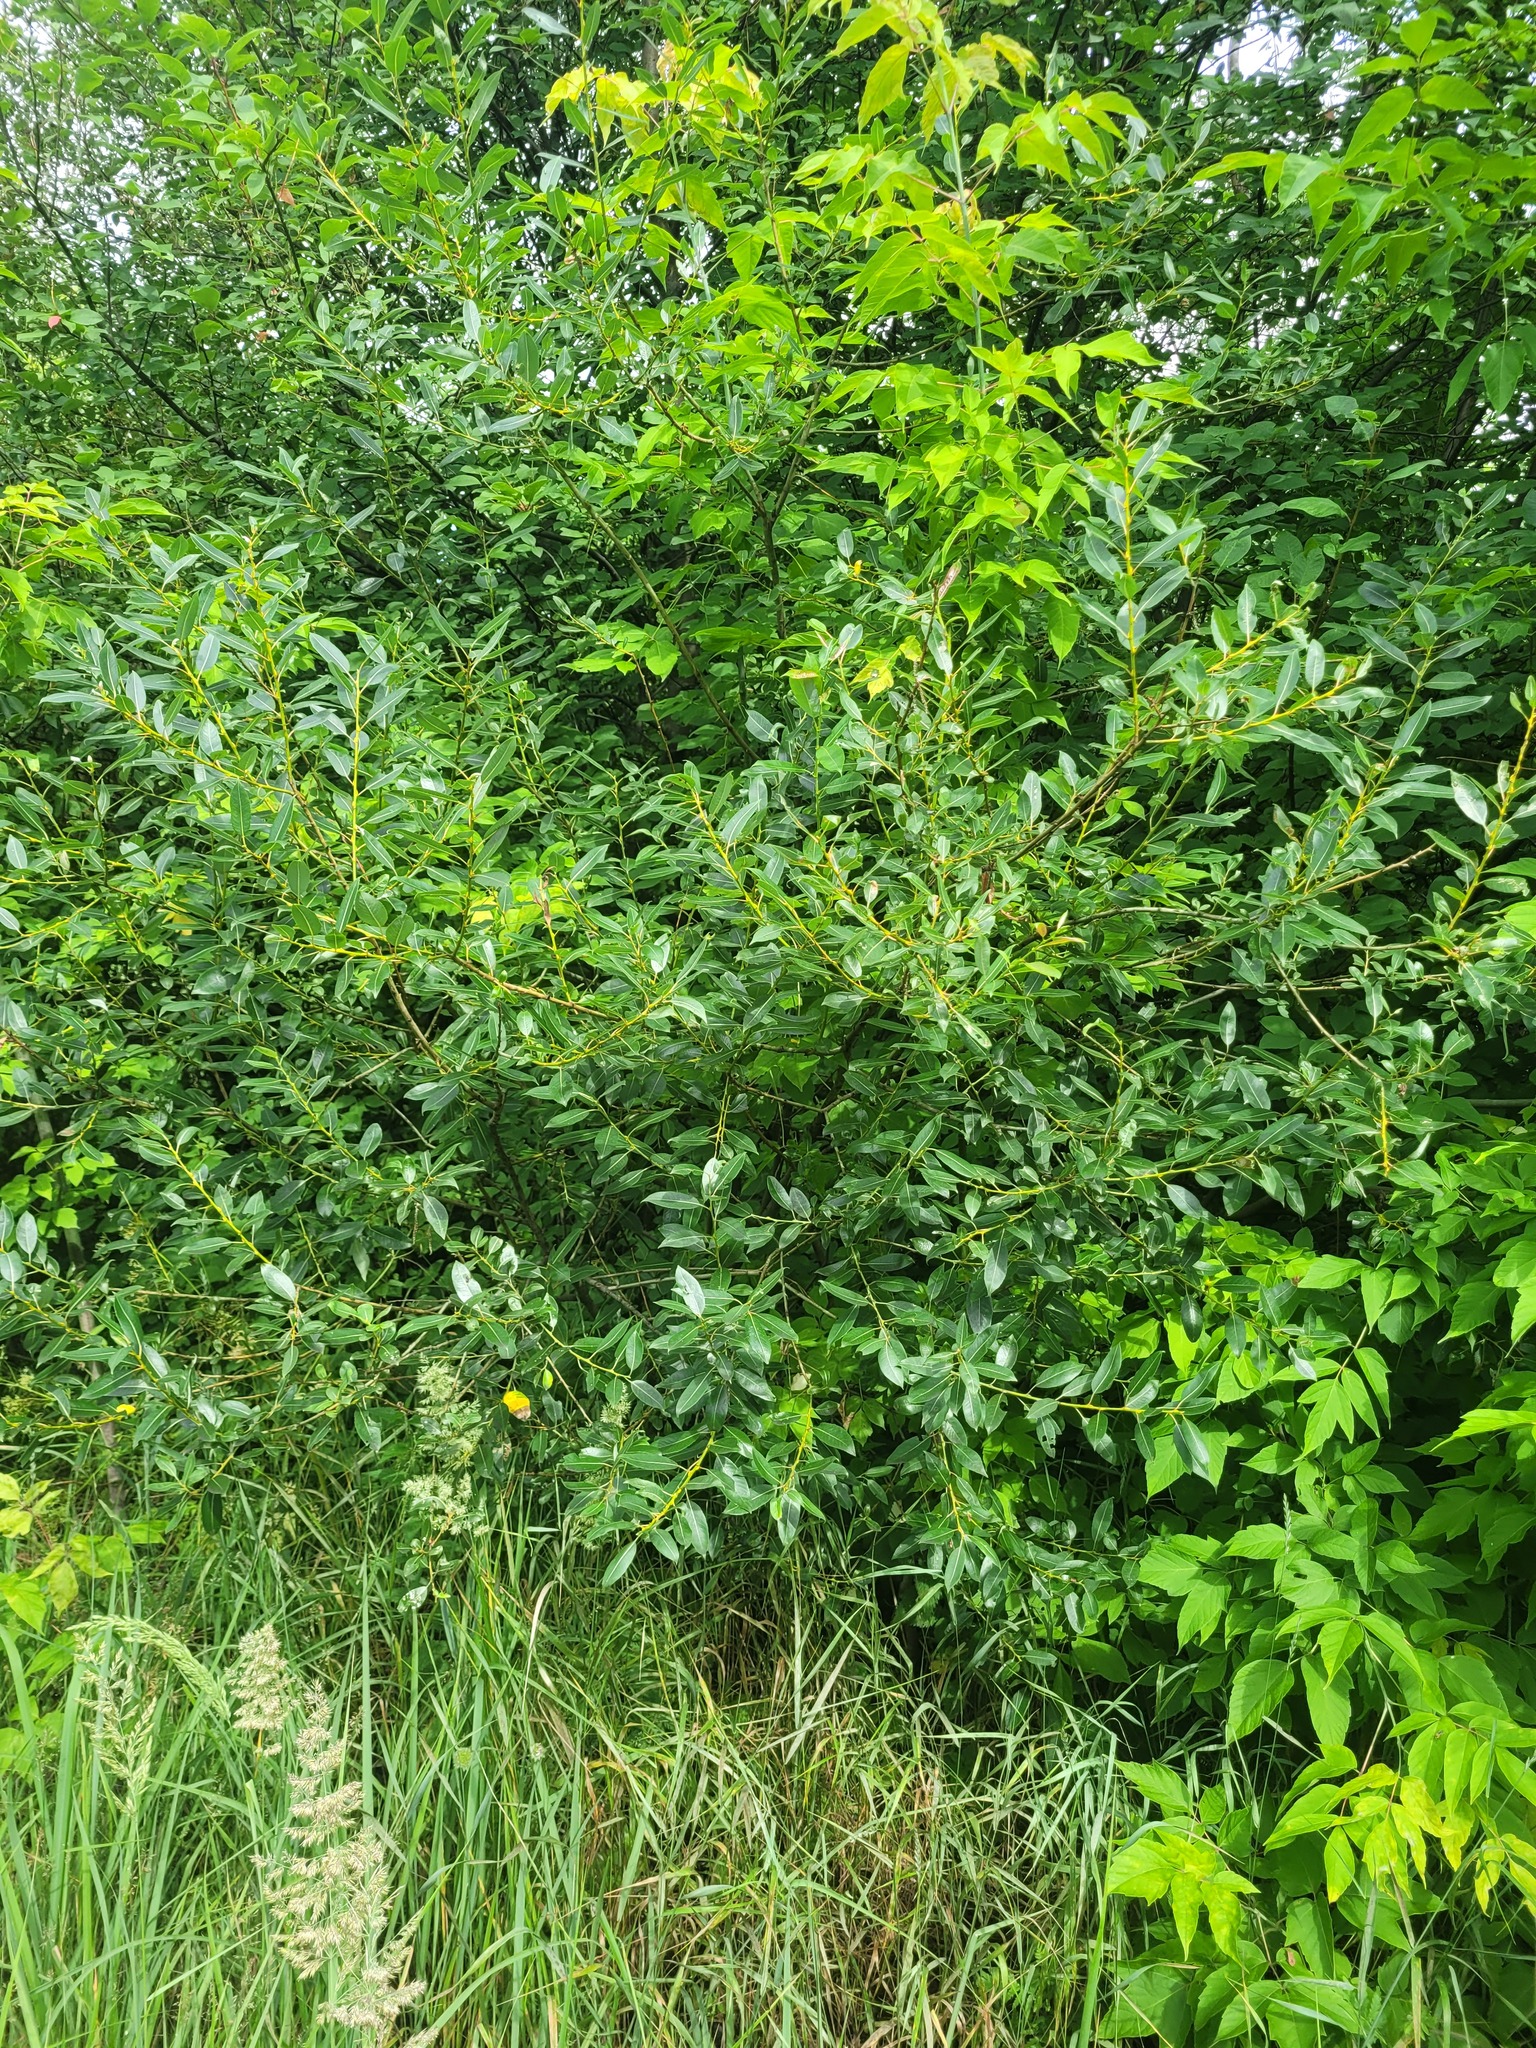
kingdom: Plantae
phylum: Tracheophyta
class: Magnoliopsida
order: Malpighiales
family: Salicaceae
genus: Salix
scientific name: Salix triandra
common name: Almond willow
